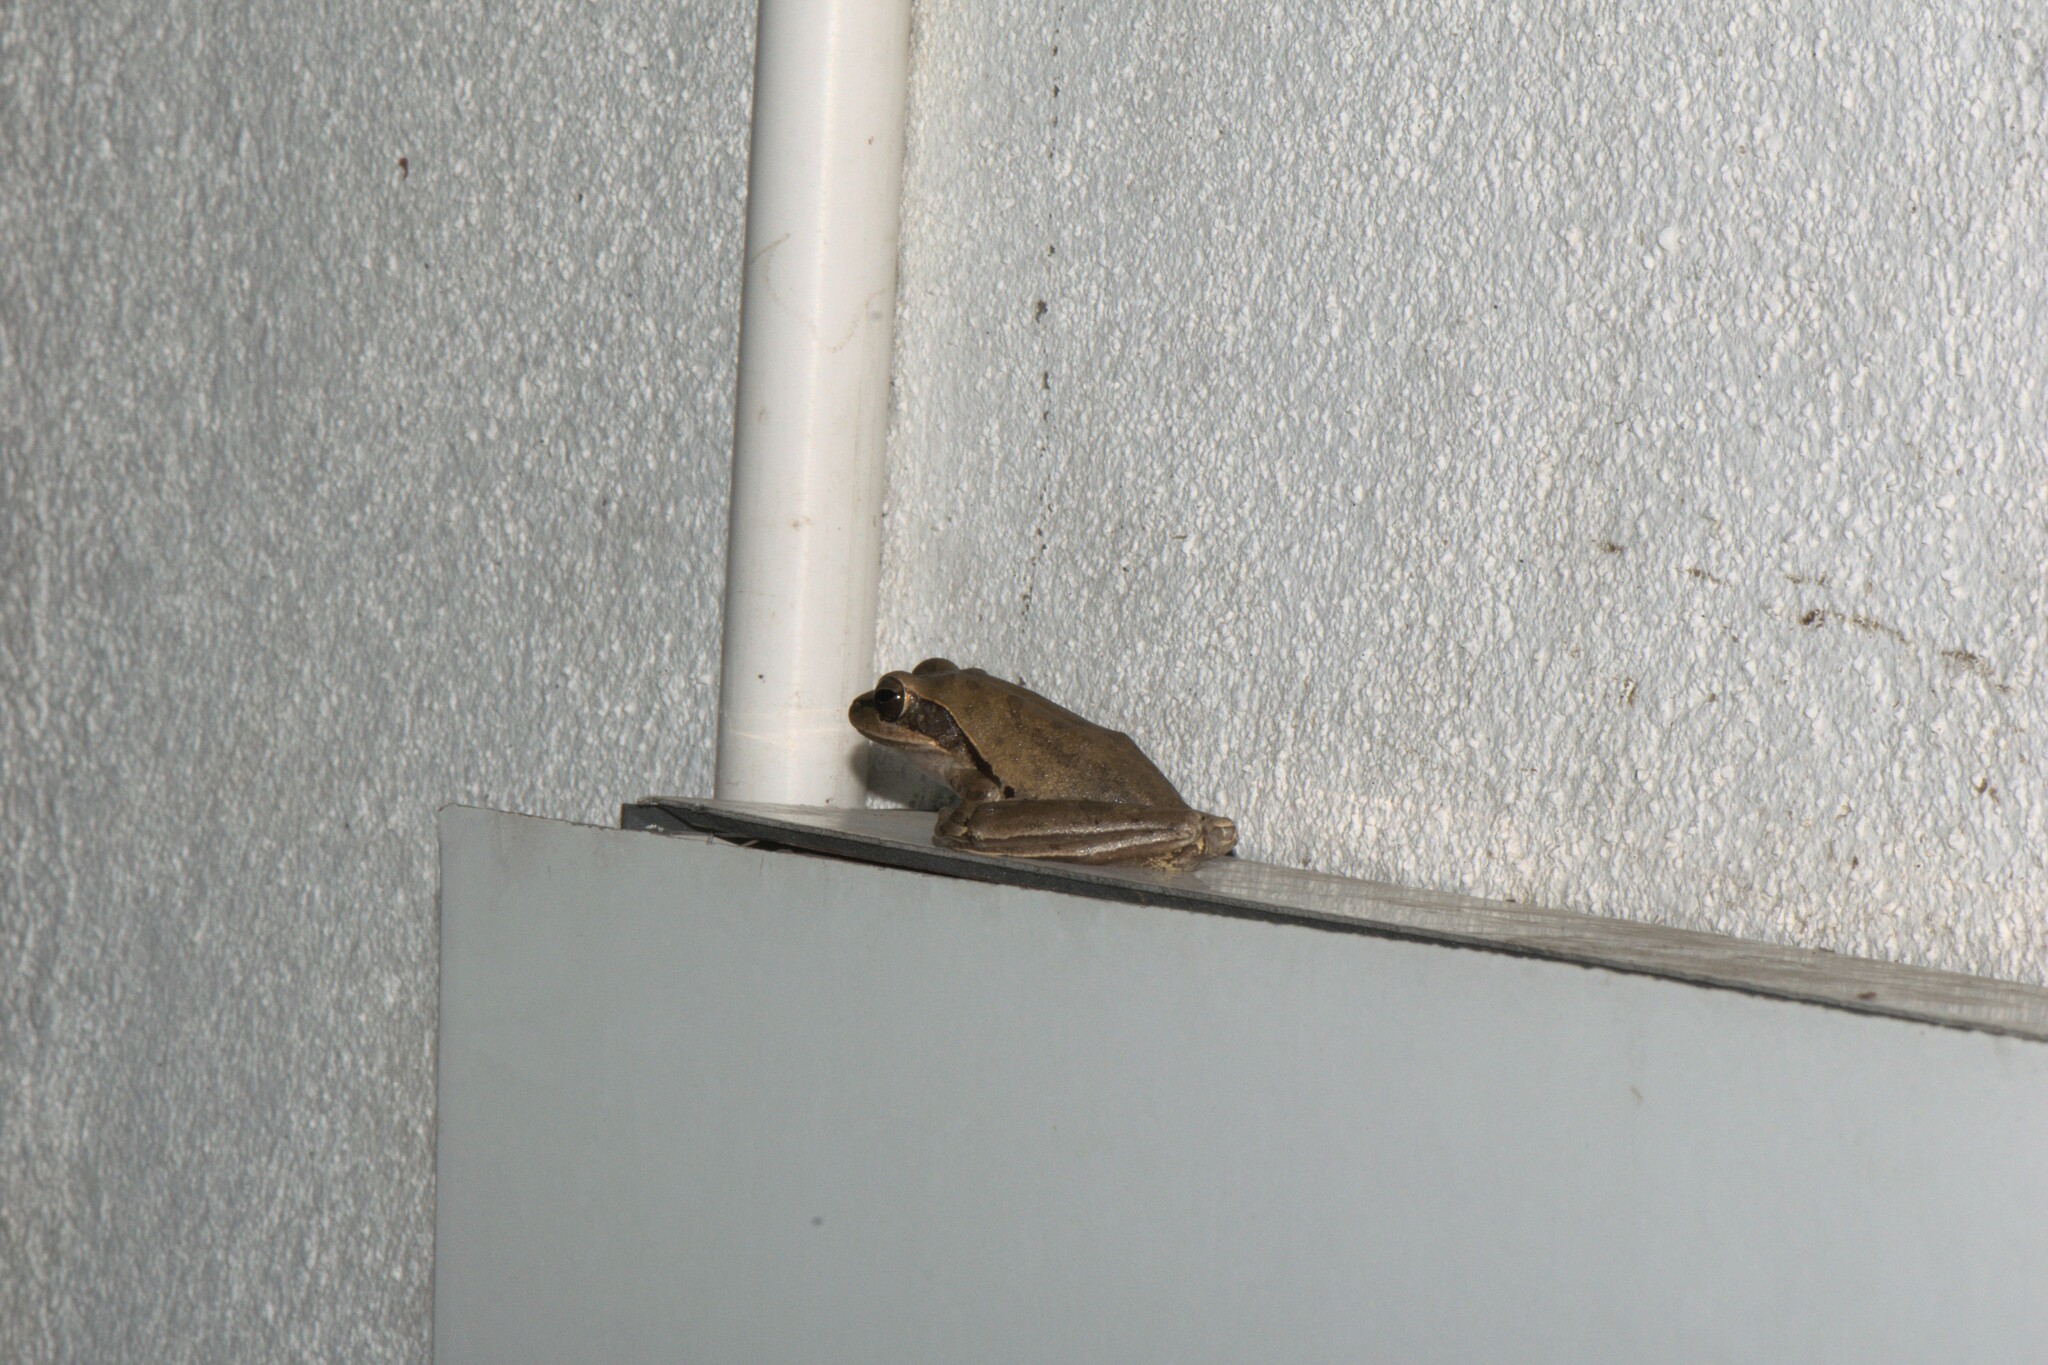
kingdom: Animalia
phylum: Chordata
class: Amphibia
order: Anura
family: Rhacophoridae
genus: Polypedates
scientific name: Polypedates maculatus
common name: Himalayan tree frog
